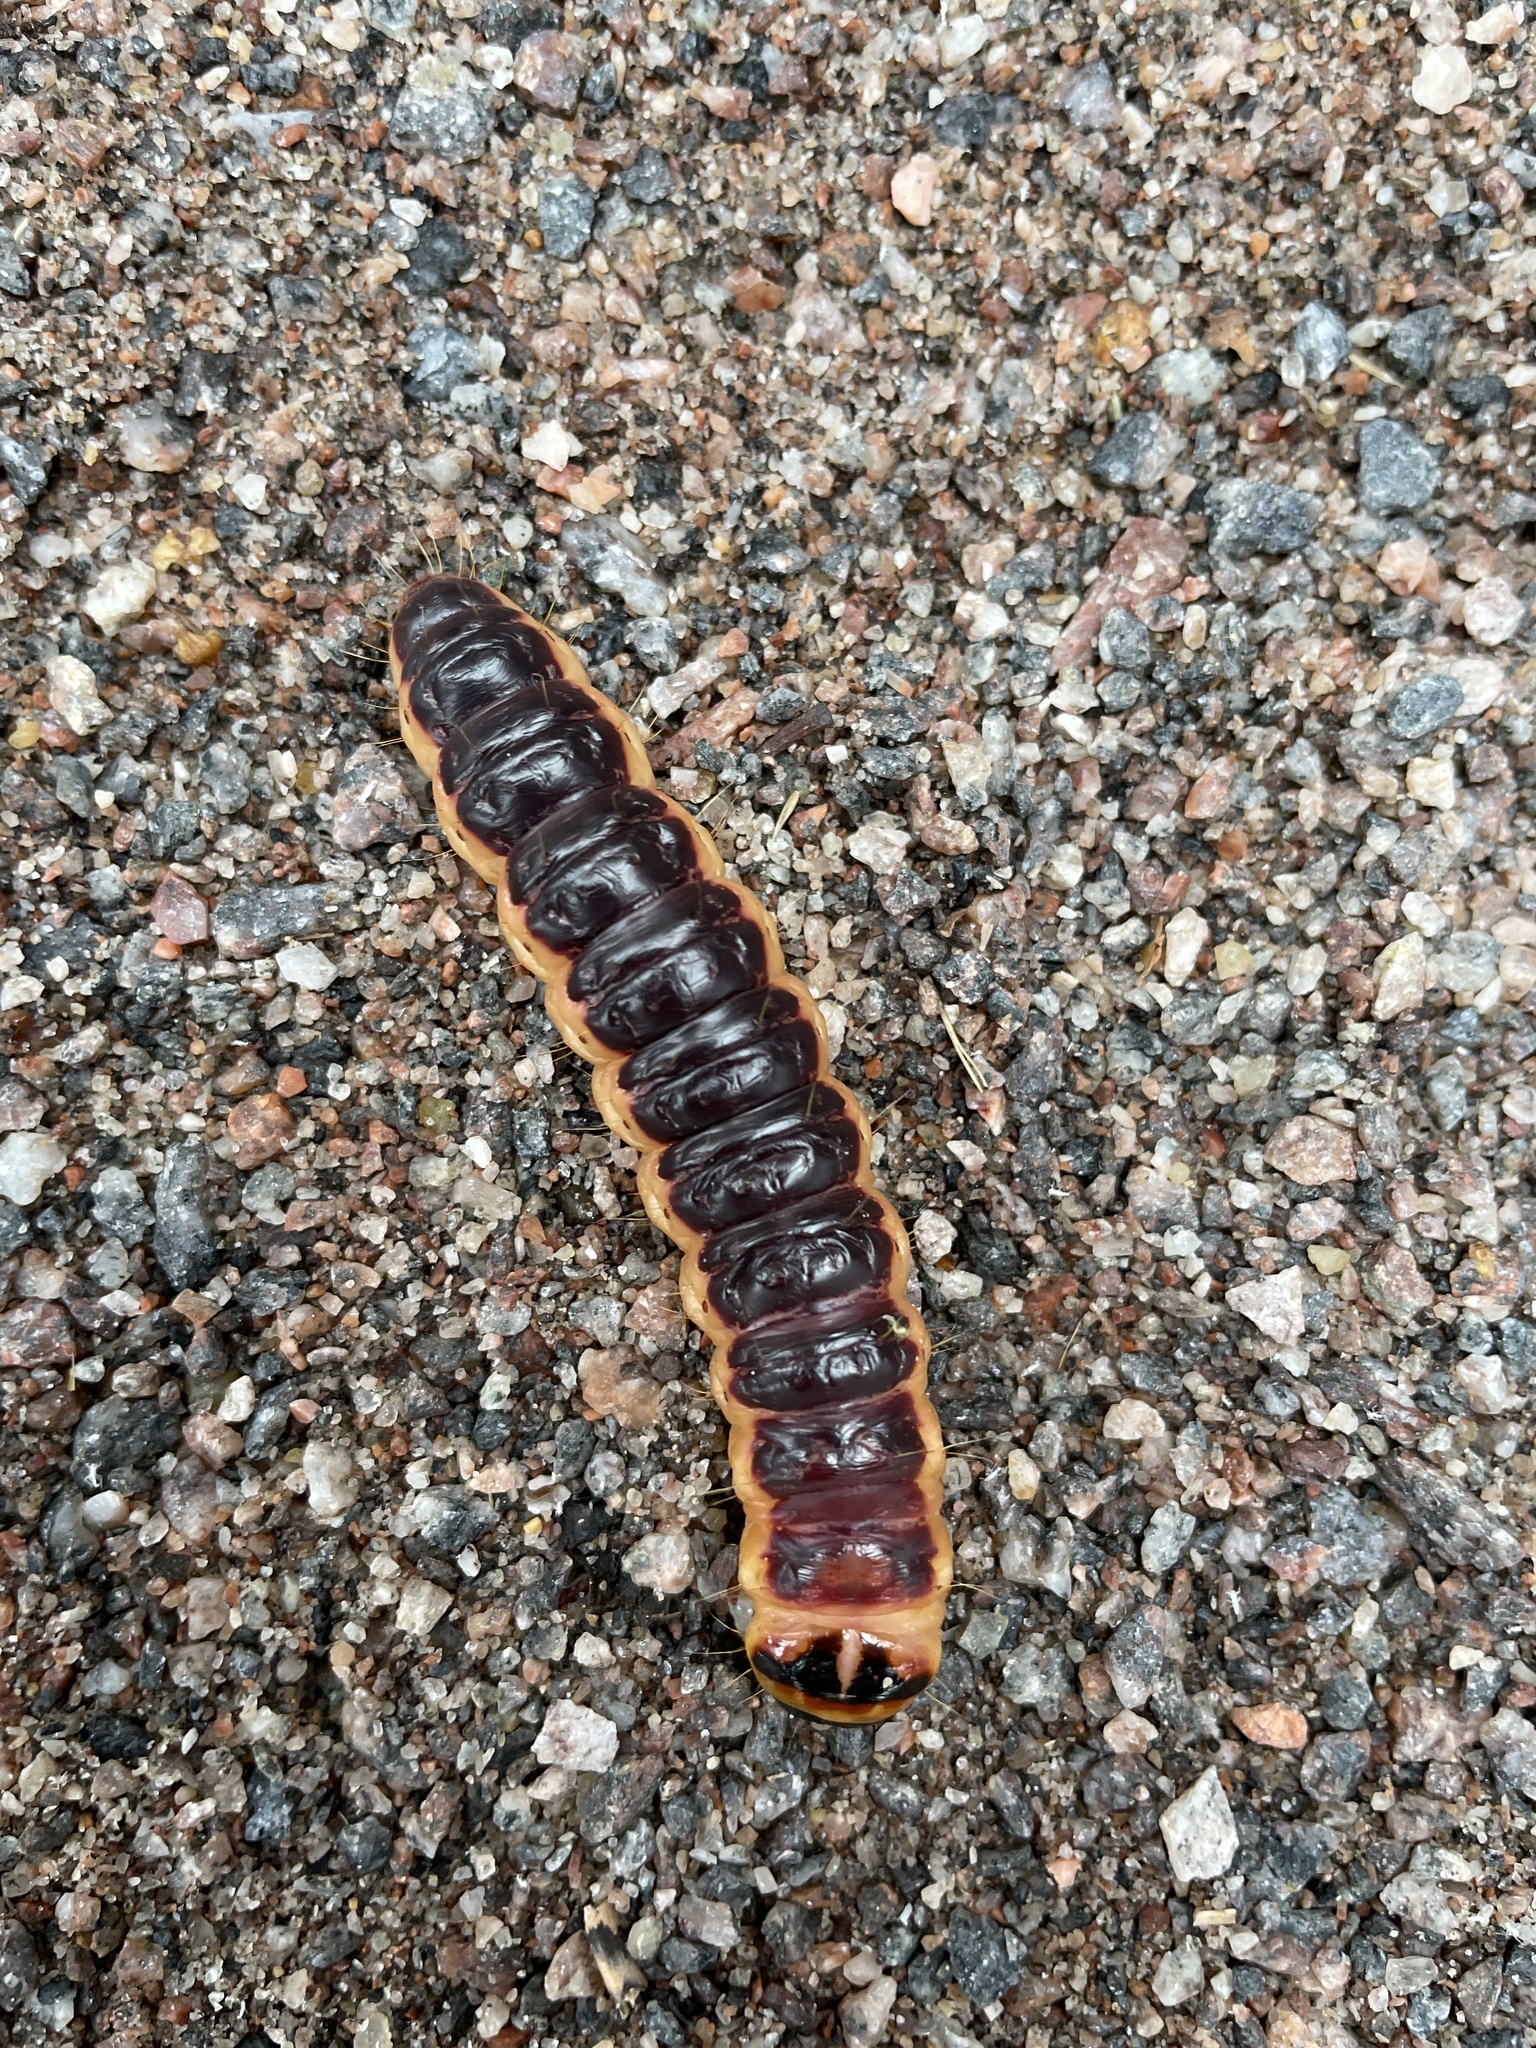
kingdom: Animalia
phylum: Arthropoda
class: Insecta
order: Lepidoptera
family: Cossidae
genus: Cossus
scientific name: Cossus cossus
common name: Goat moth
